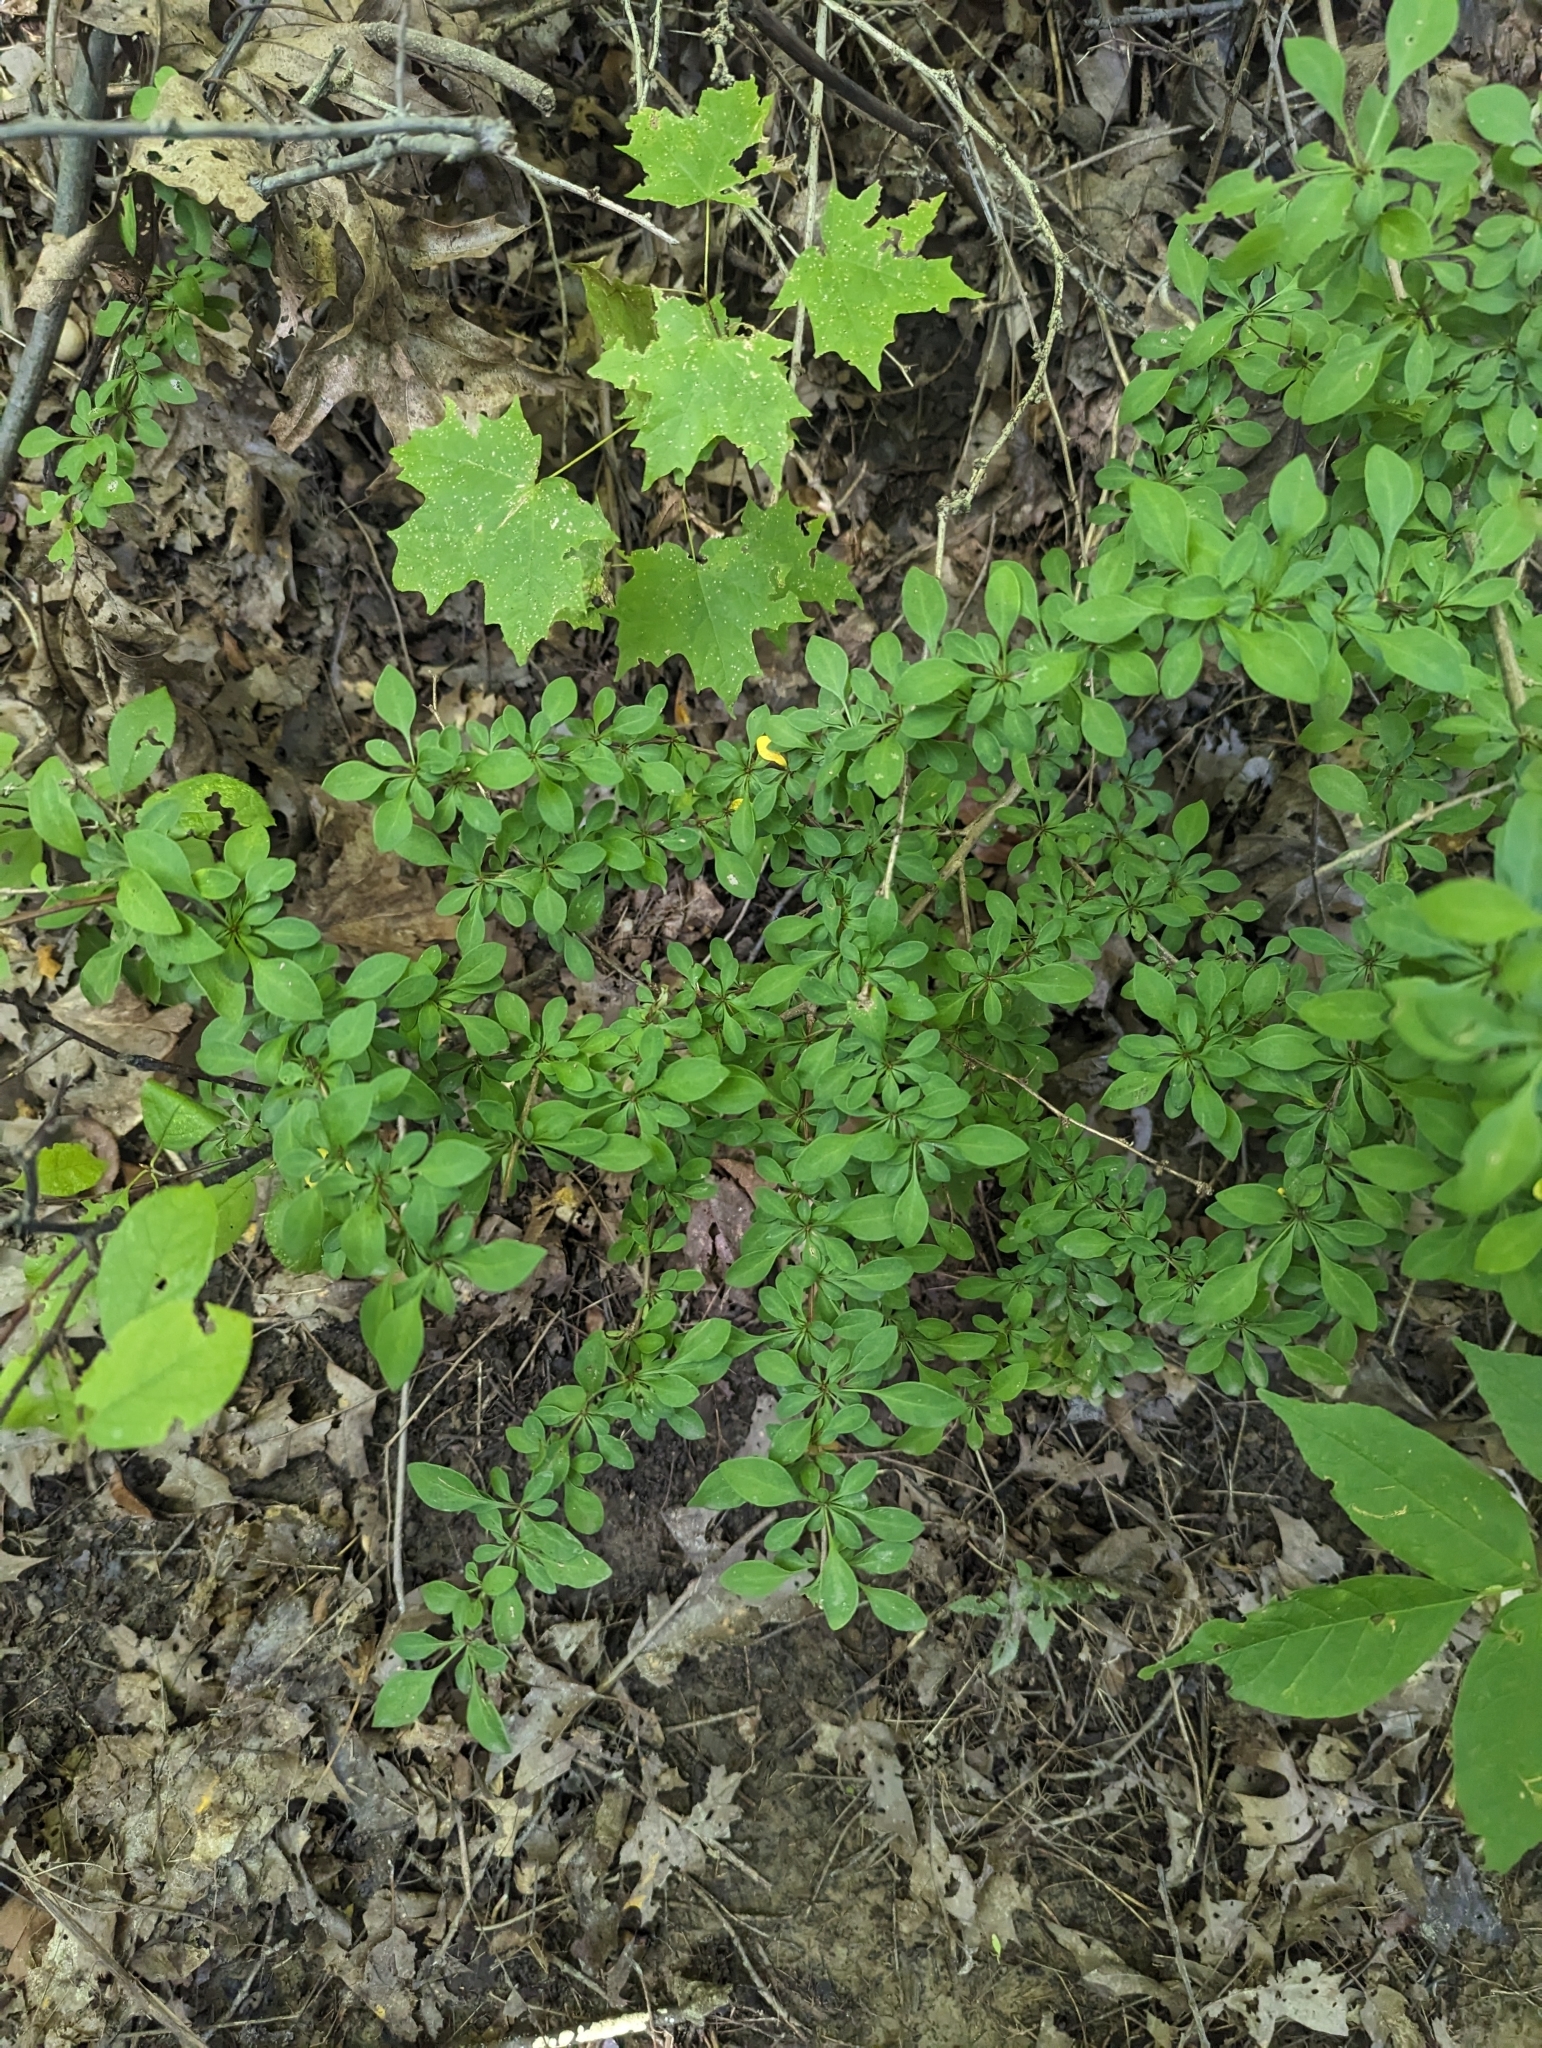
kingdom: Plantae
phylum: Tracheophyta
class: Magnoliopsida
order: Ranunculales
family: Berberidaceae
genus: Berberis
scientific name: Berberis thunbergii
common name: Japanese barberry
